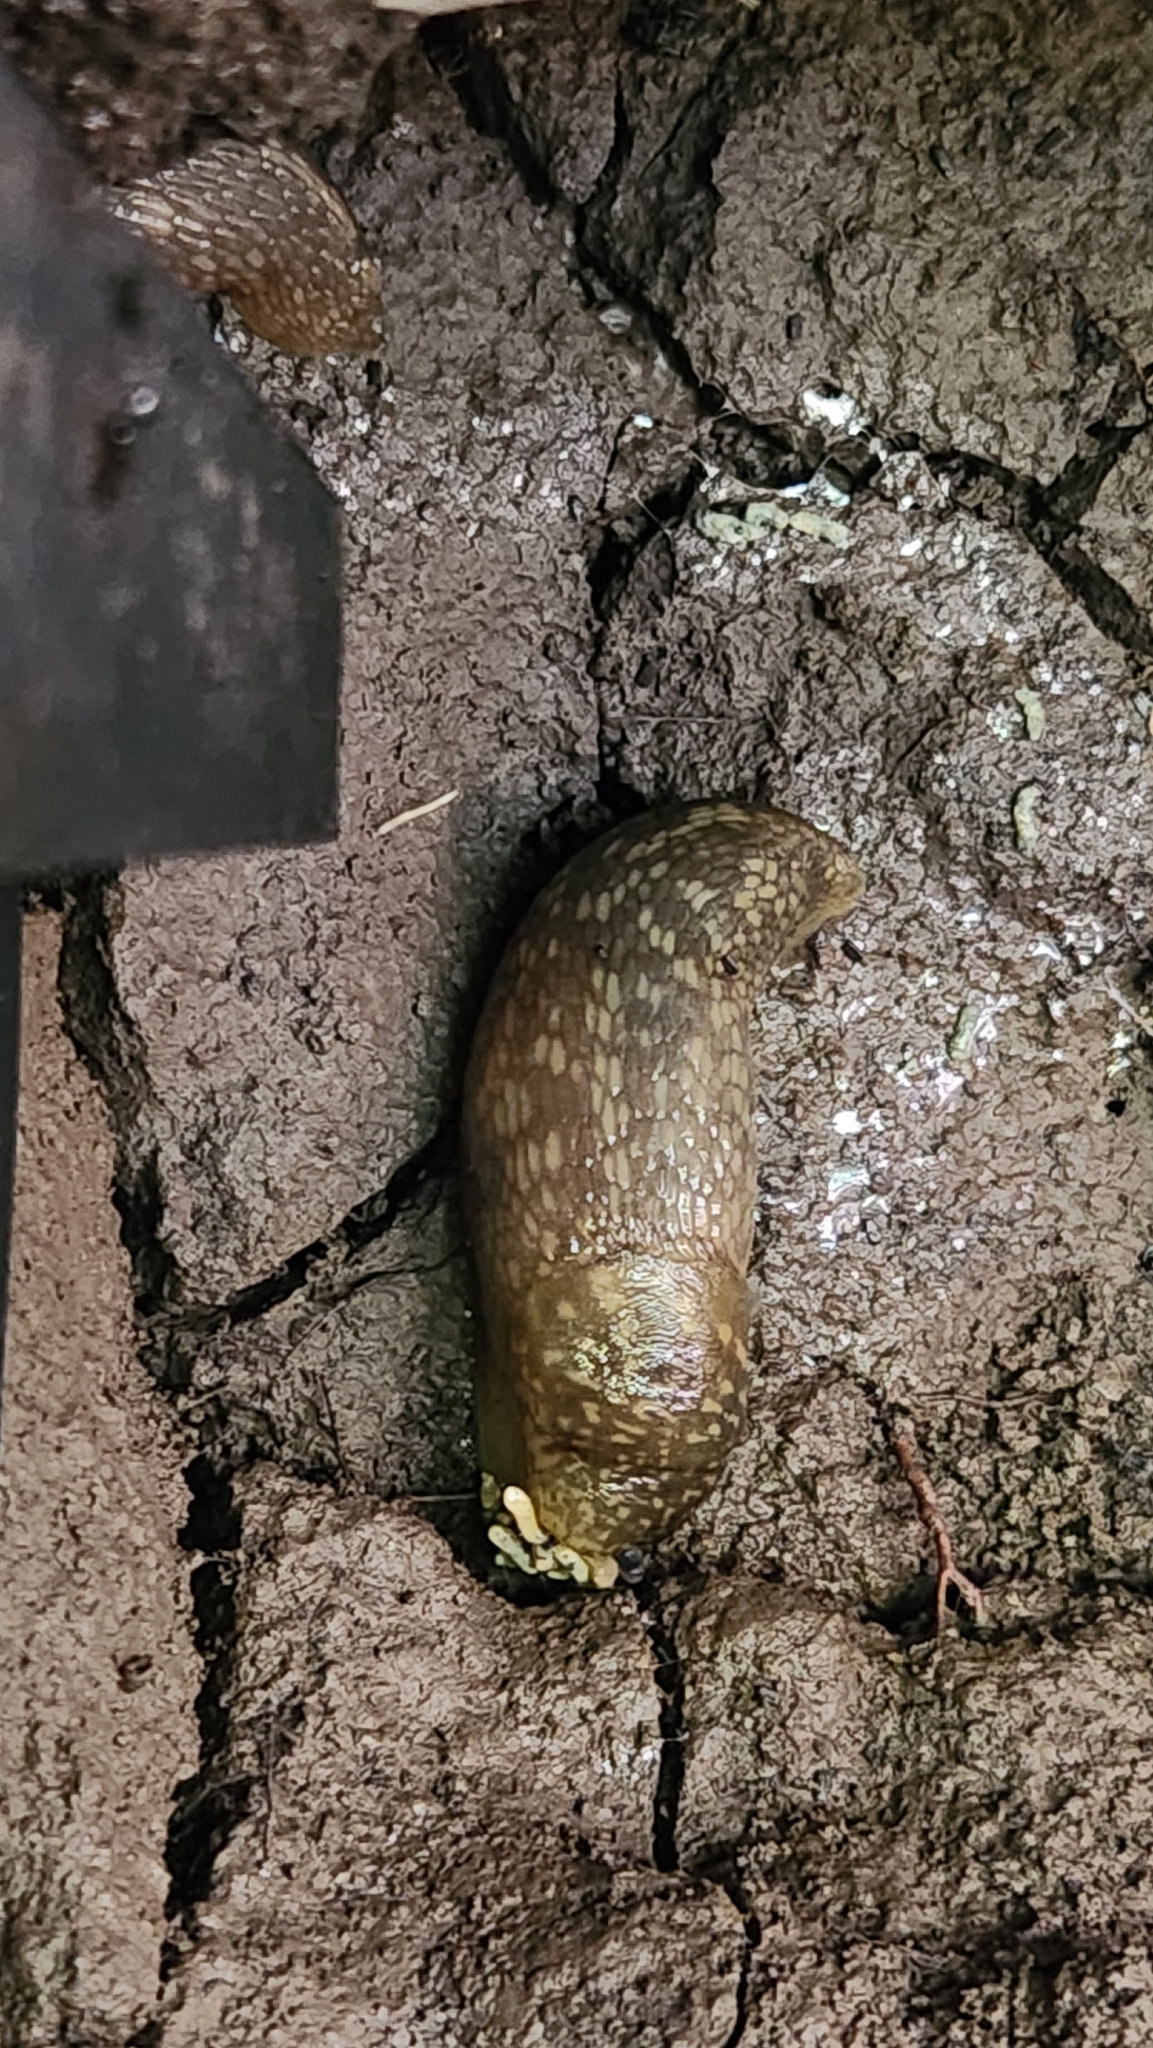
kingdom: Animalia
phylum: Mollusca
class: Gastropoda
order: Stylommatophora
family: Limacidae
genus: Limacus
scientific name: Limacus flavus
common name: Yellow gardenslug
